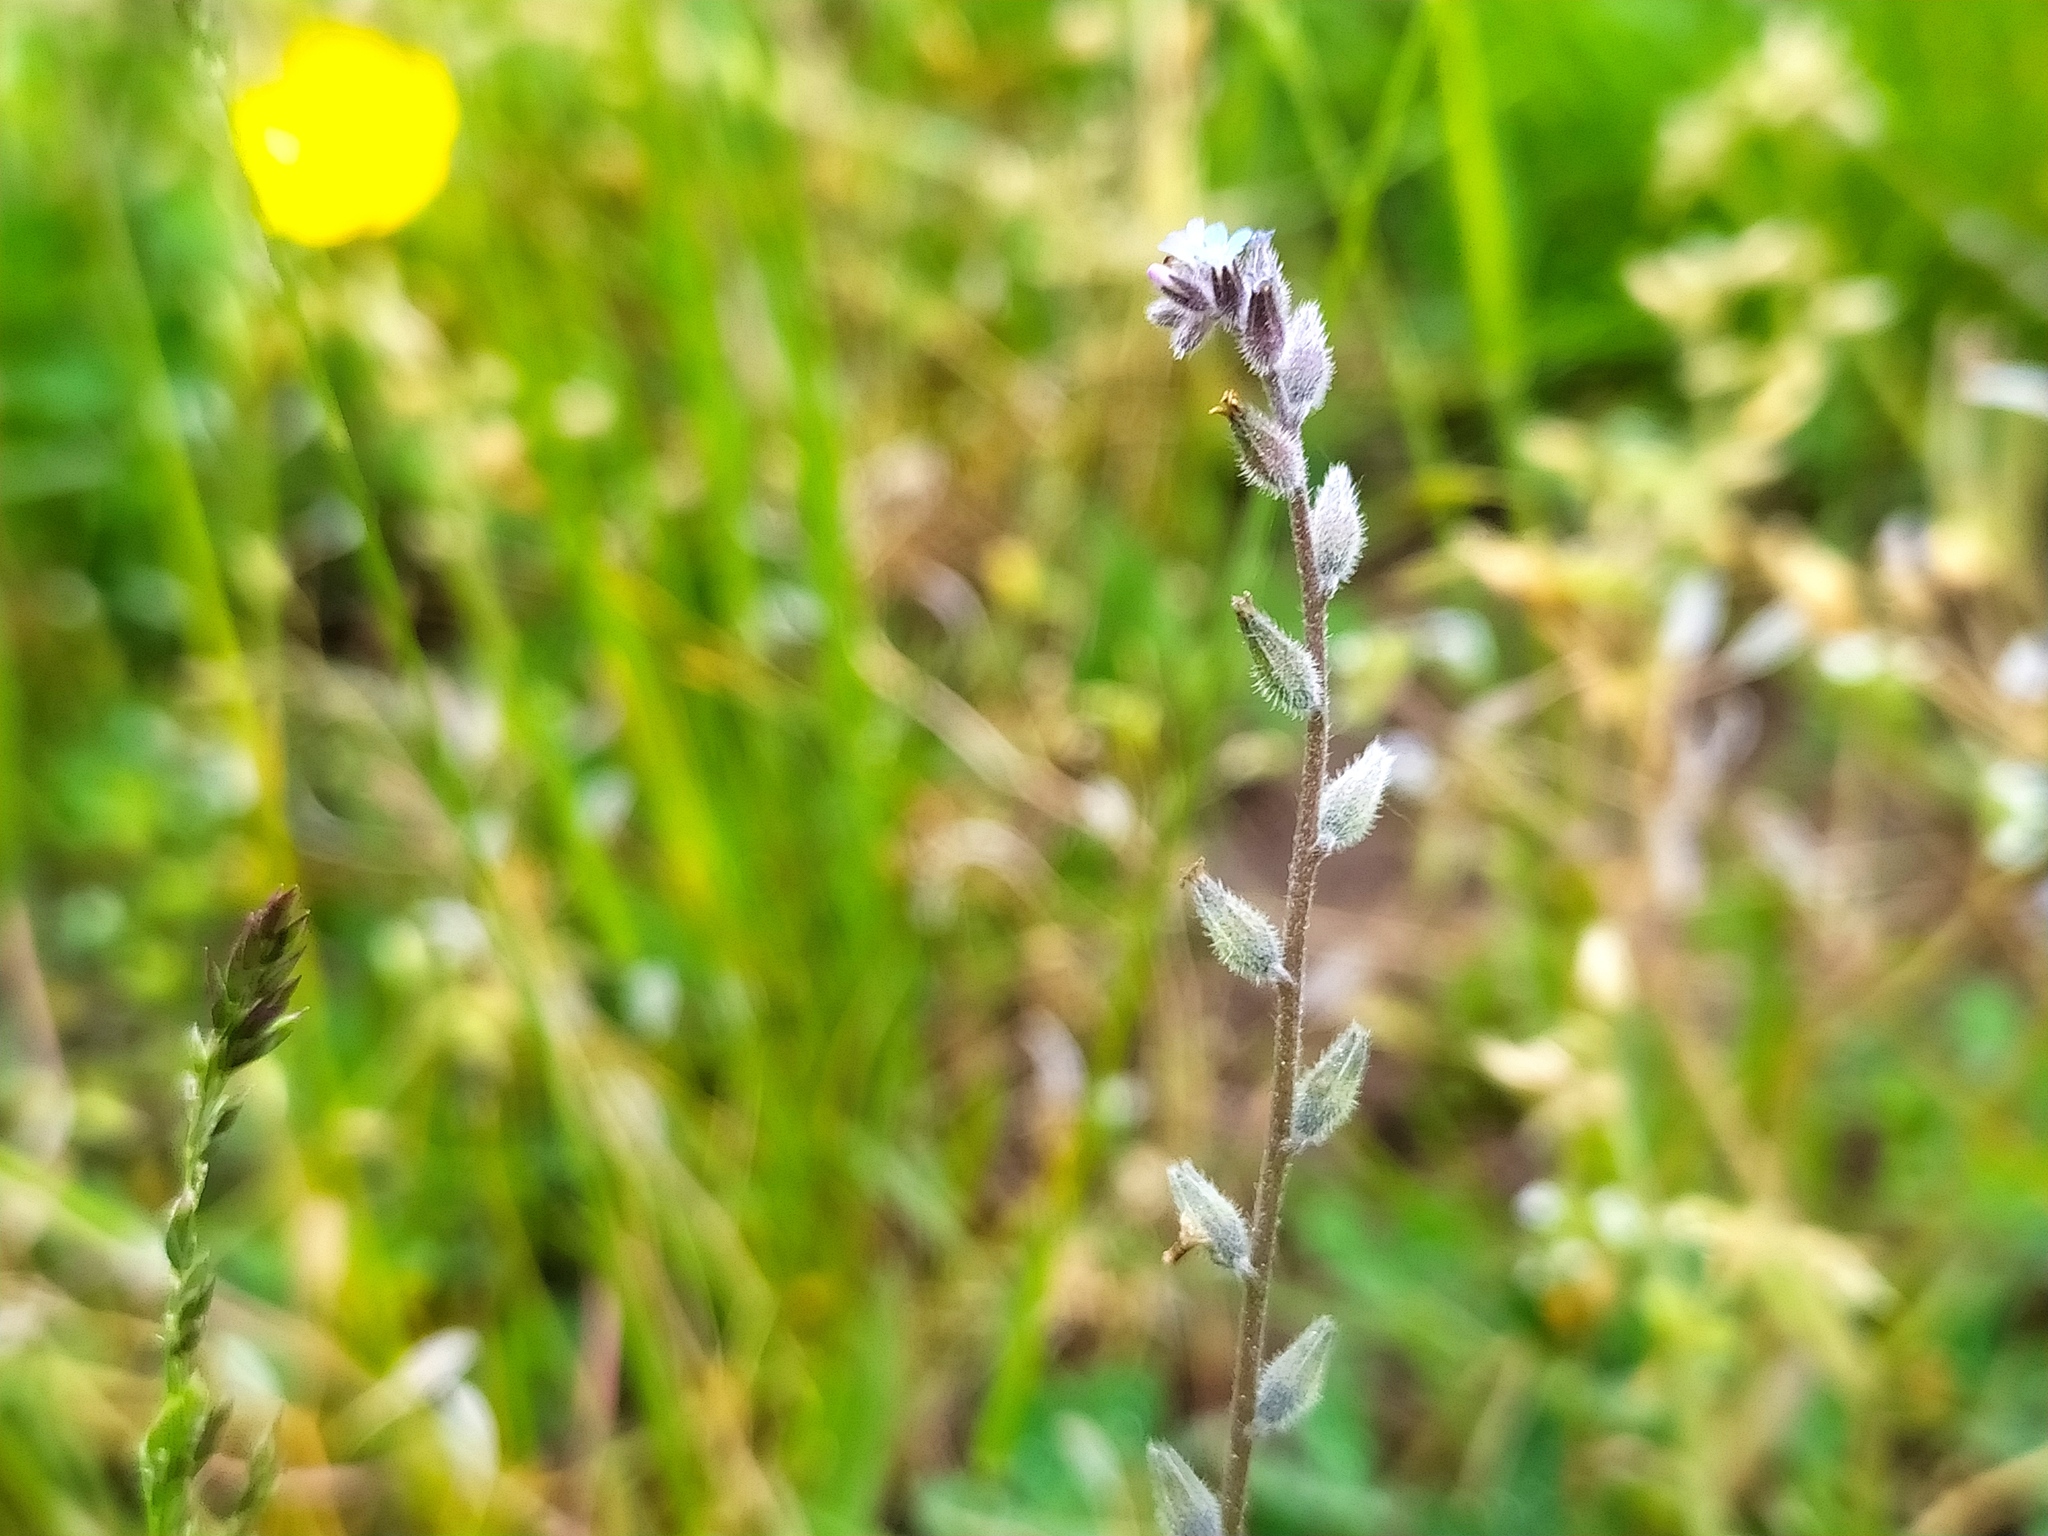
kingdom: Plantae
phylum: Tracheophyta
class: Magnoliopsida
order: Boraginales
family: Boraginaceae
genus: Myosotis
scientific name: Myosotis stricta
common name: Strict forget-me-not
